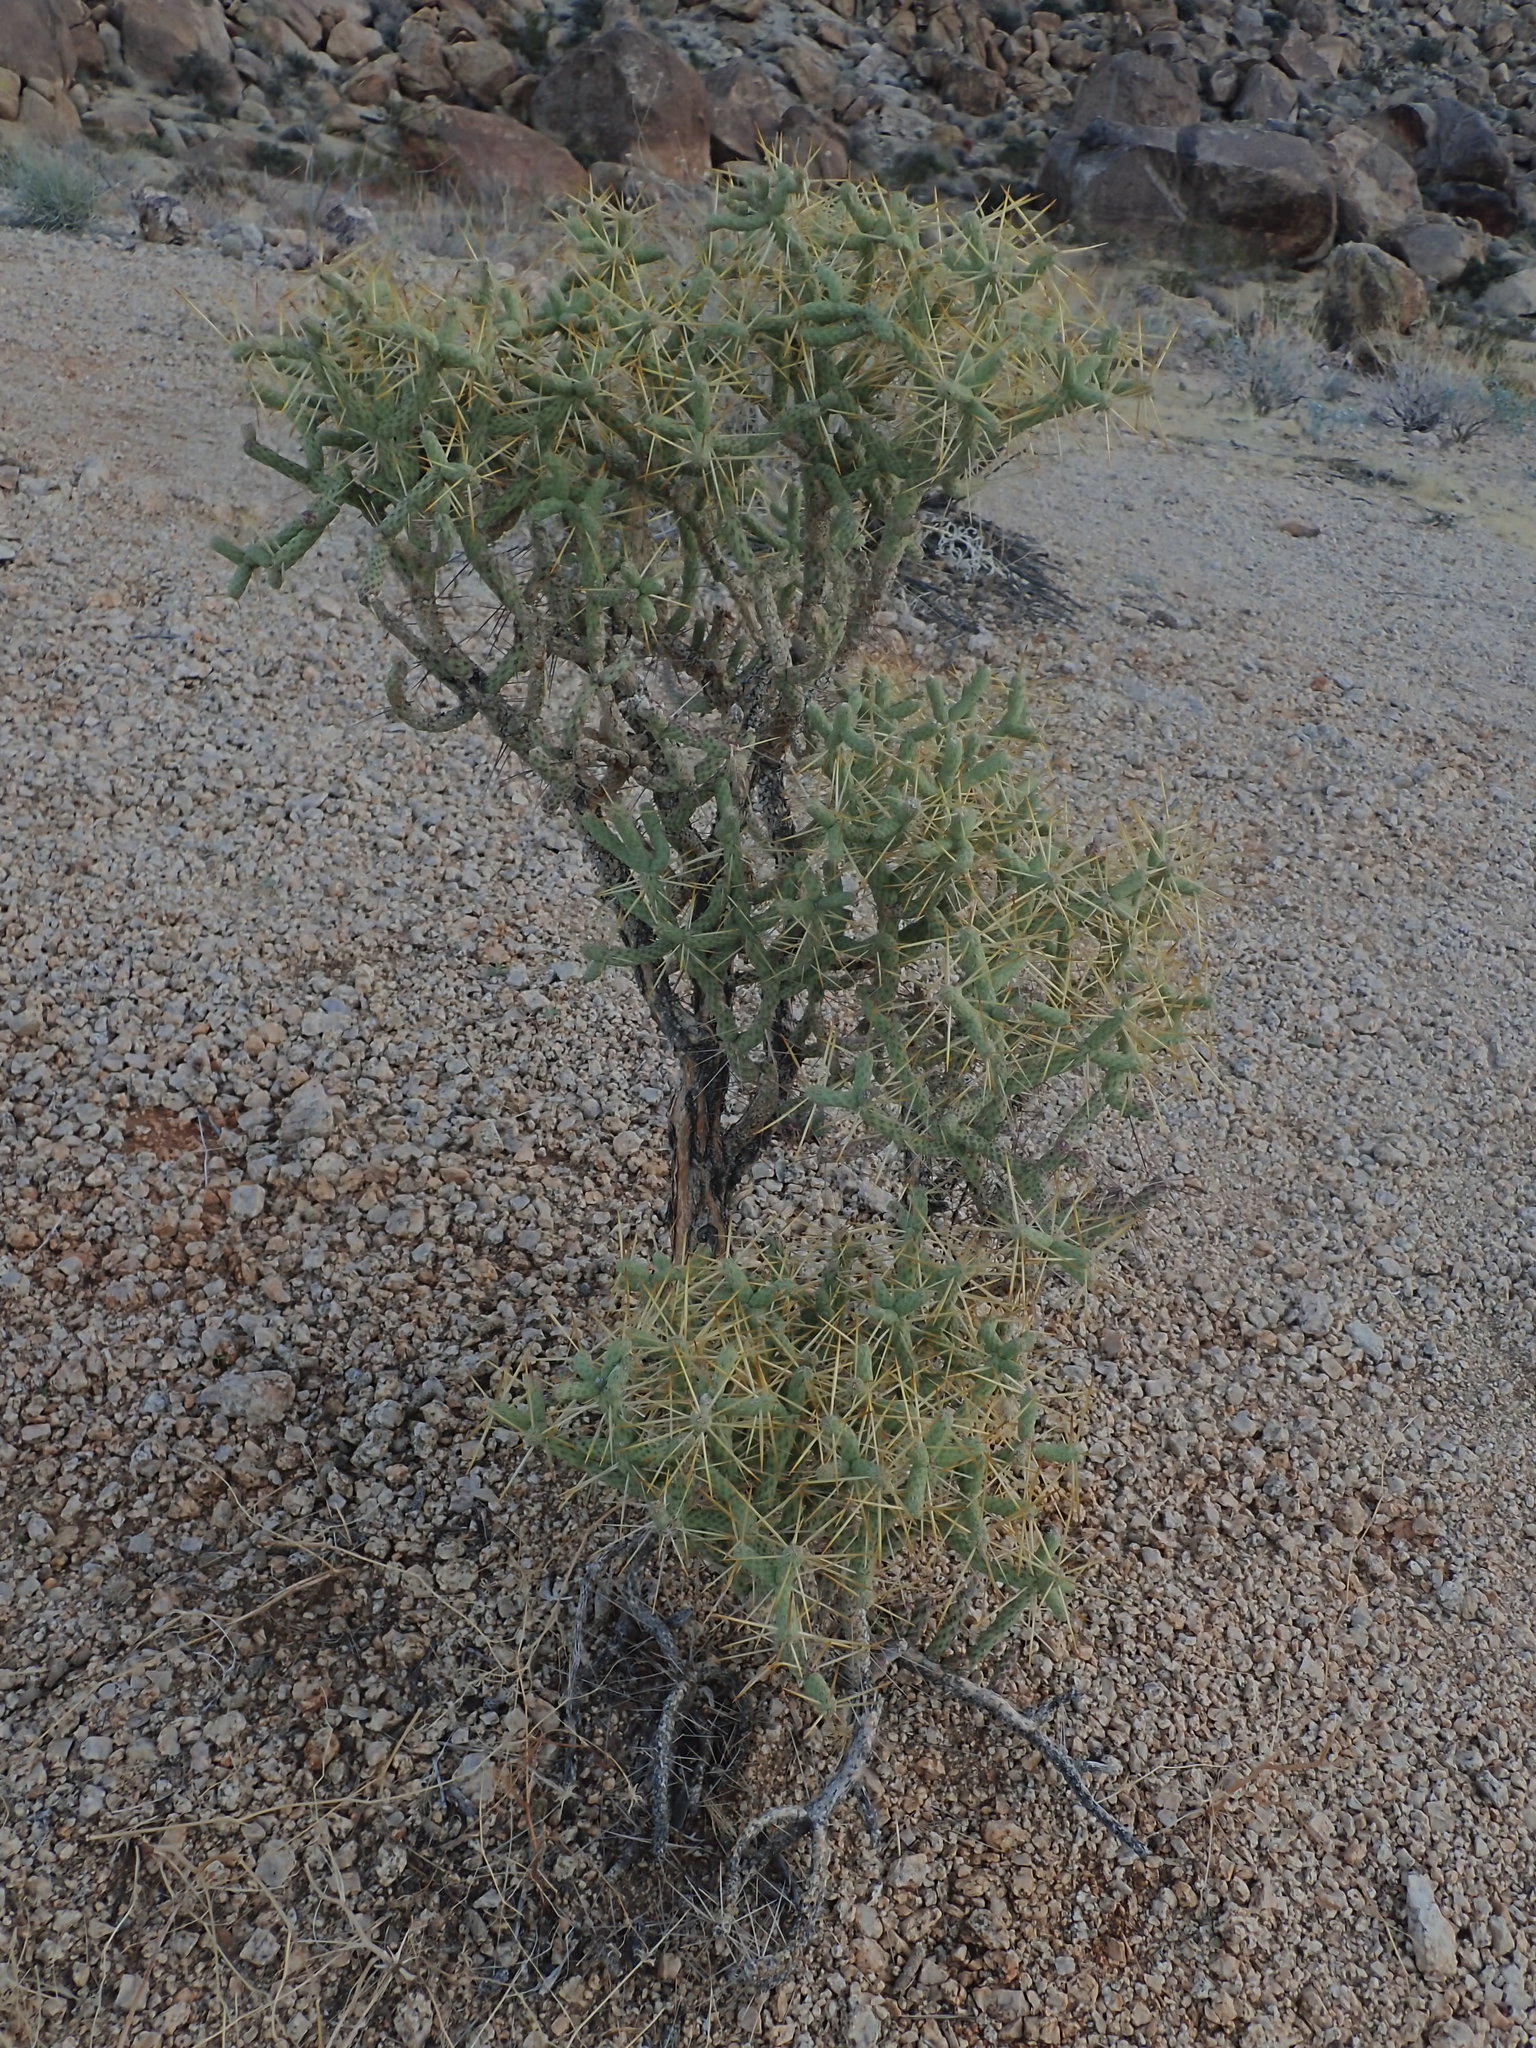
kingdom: Plantae
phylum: Tracheophyta
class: Magnoliopsida
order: Caryophyllales
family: Cactaceae
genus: Cylindropuntia
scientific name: Cylindropuntia ramosissima
